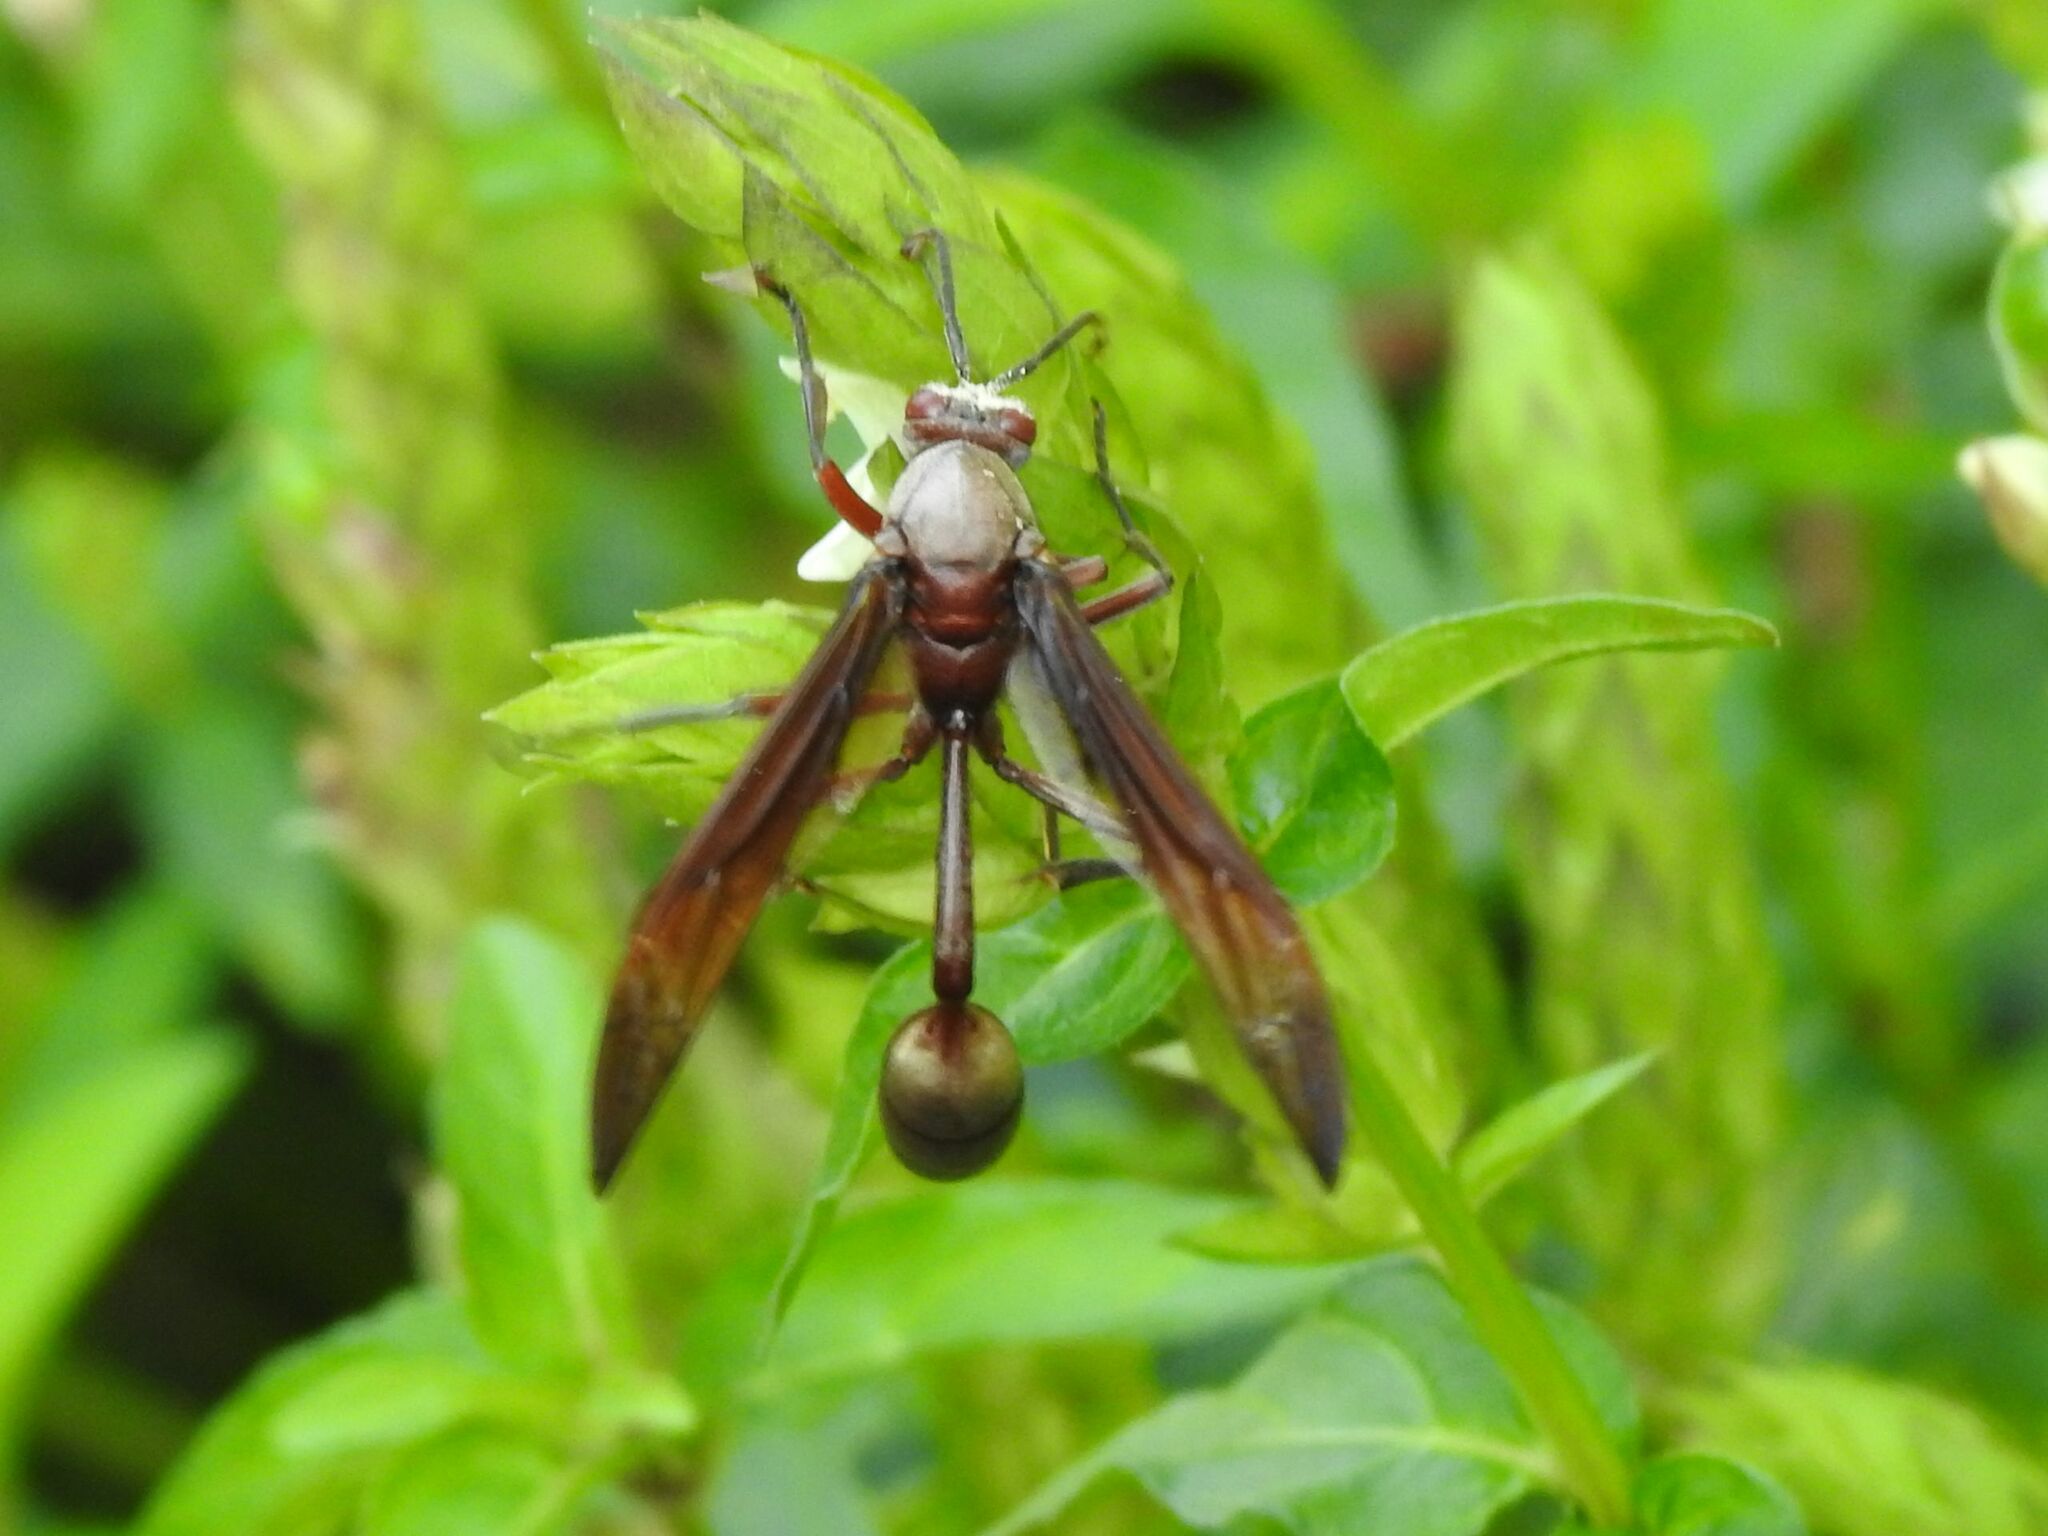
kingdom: Animalia
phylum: Arthropoda
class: Insecta
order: Hymenoptera
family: Eumenidae
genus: Belonogaster
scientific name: Belonogaster
